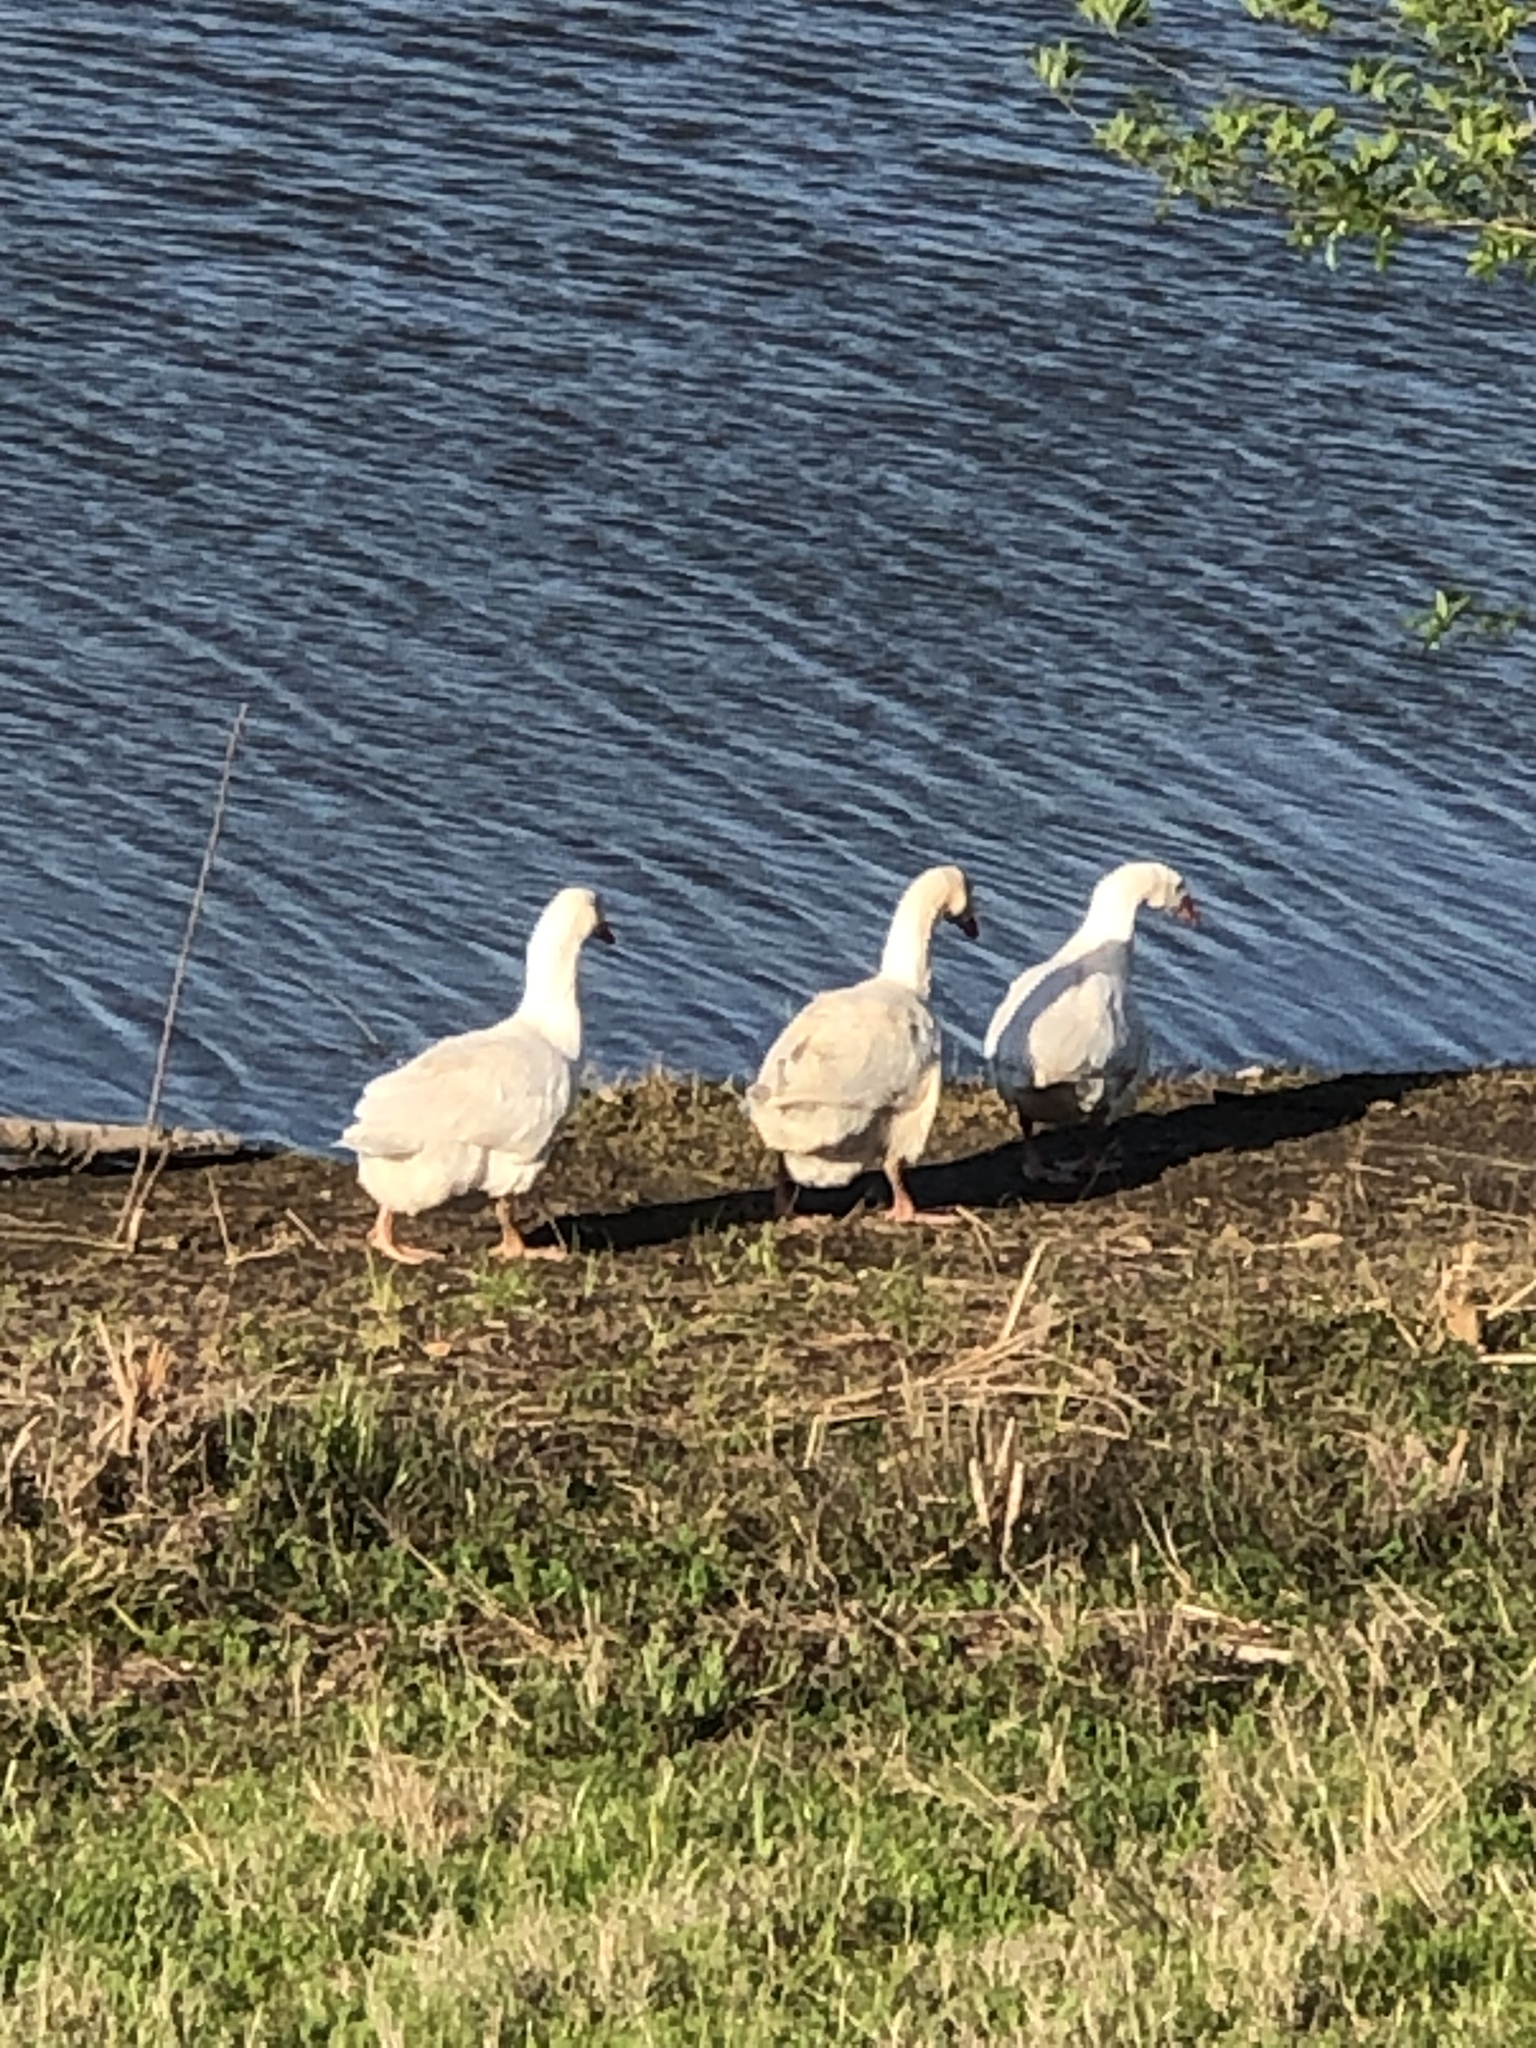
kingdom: Animalia
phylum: Chordata
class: Aves
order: Anseriformes
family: Anatidae
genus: Anser
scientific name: Anser anser
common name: Greylag goose
